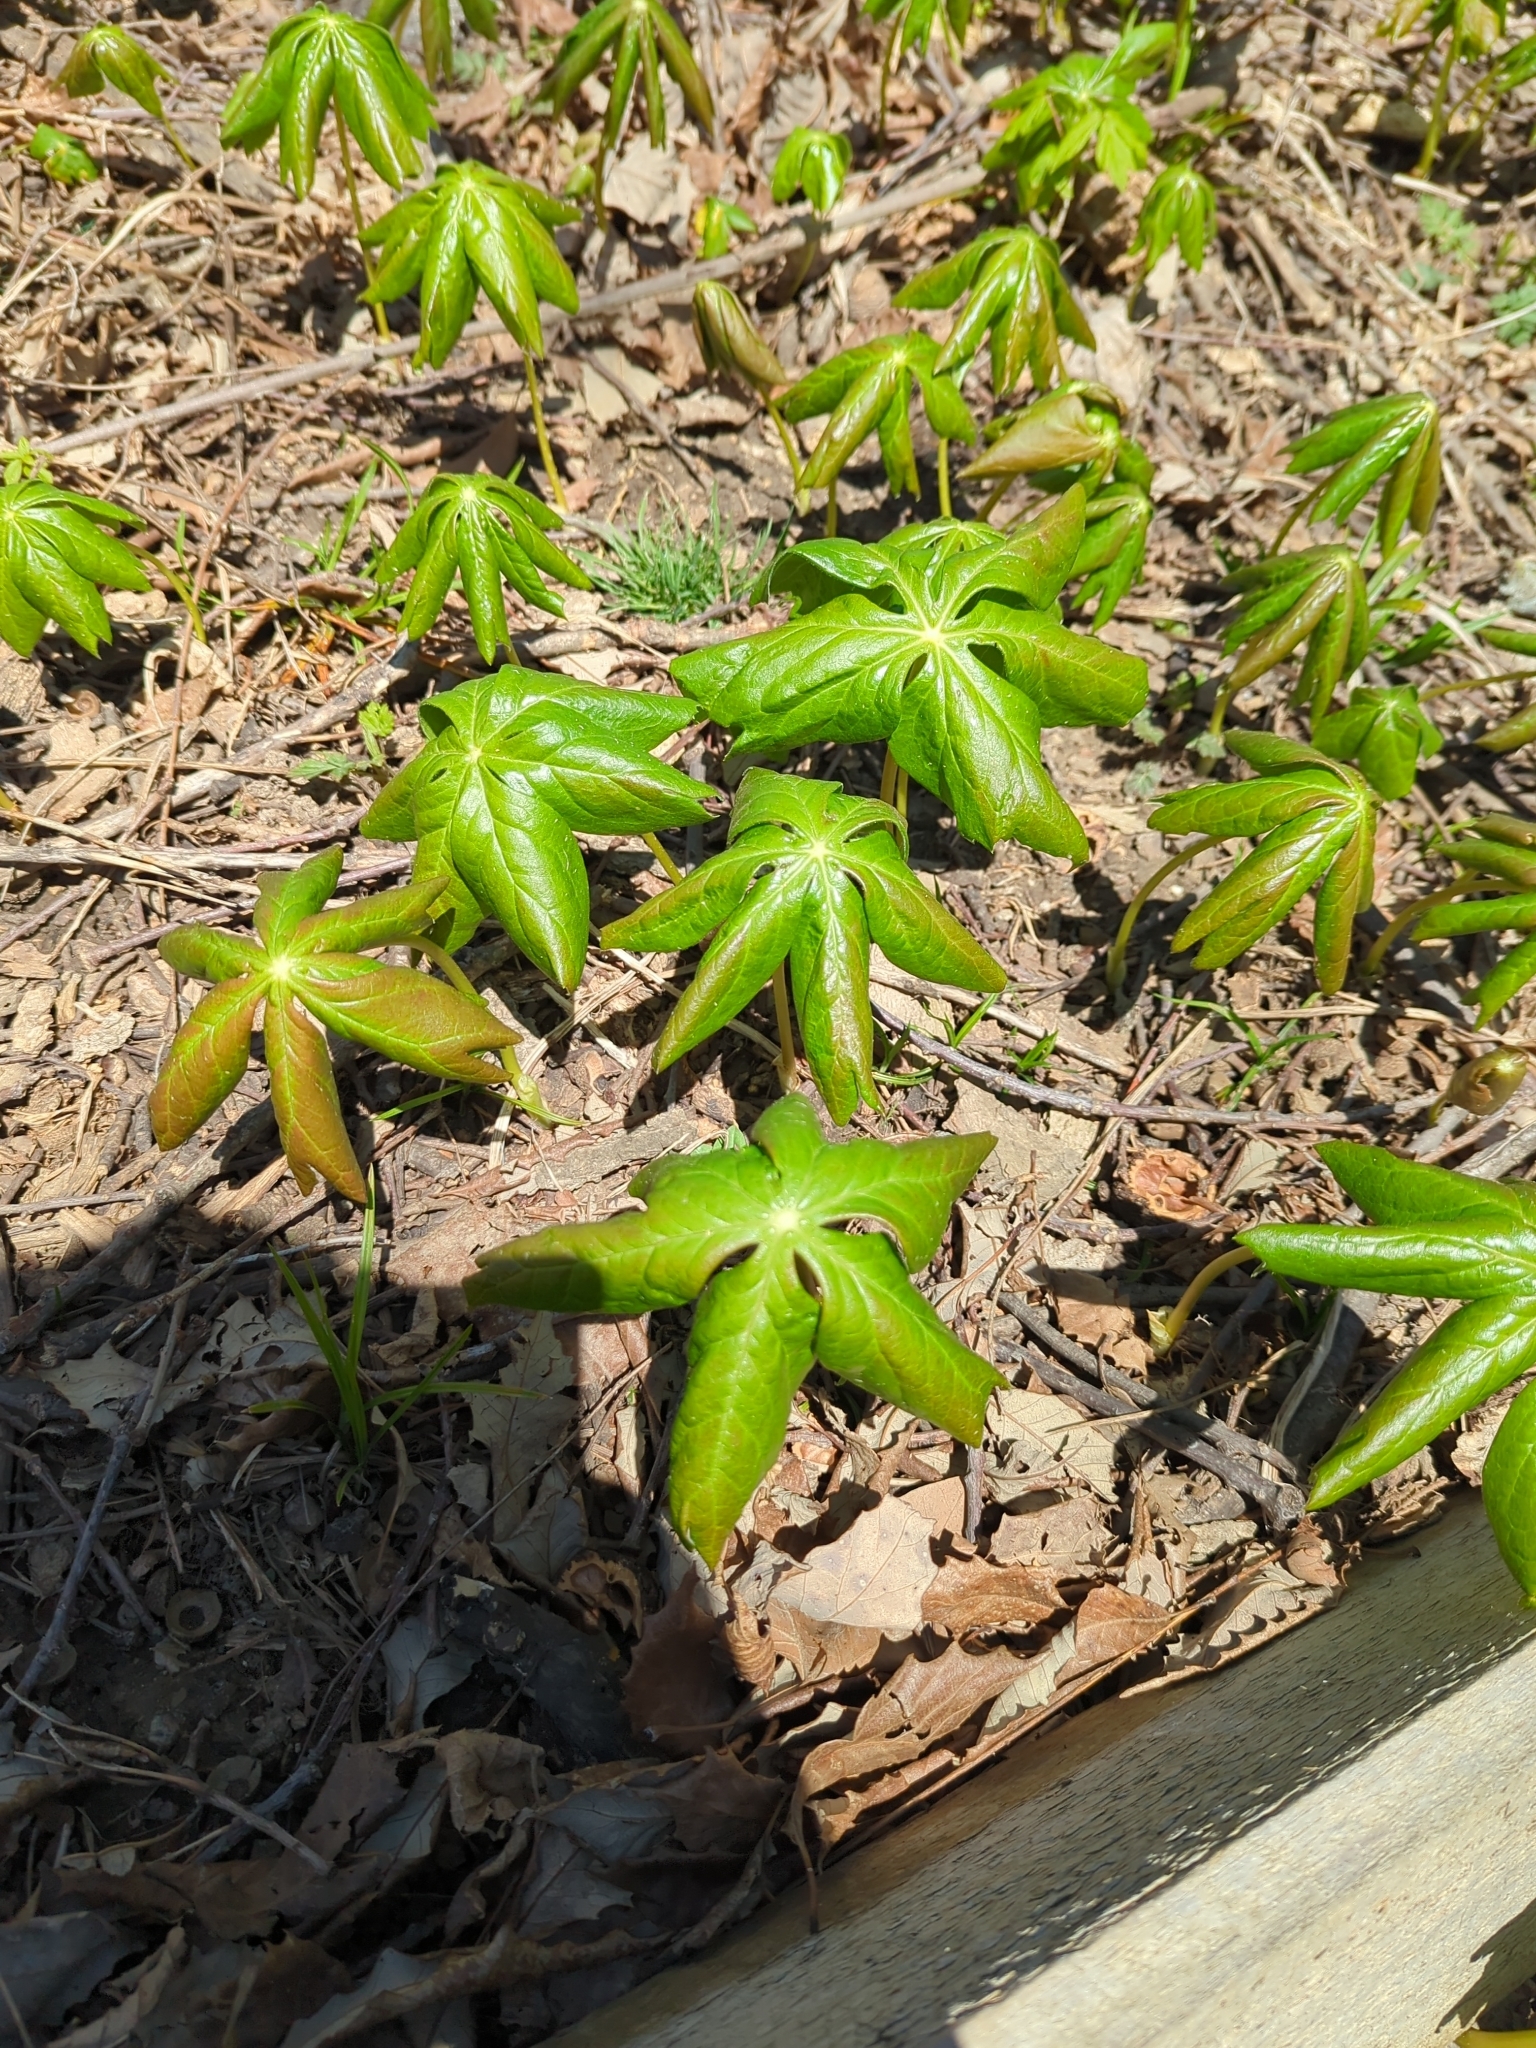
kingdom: Plantae
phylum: Tracheophyta
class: Magnoliopsida
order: Ranunculales
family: Berberidaceae
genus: Podophyllum
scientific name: Podophyllum peltatum
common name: Wild mandrake
